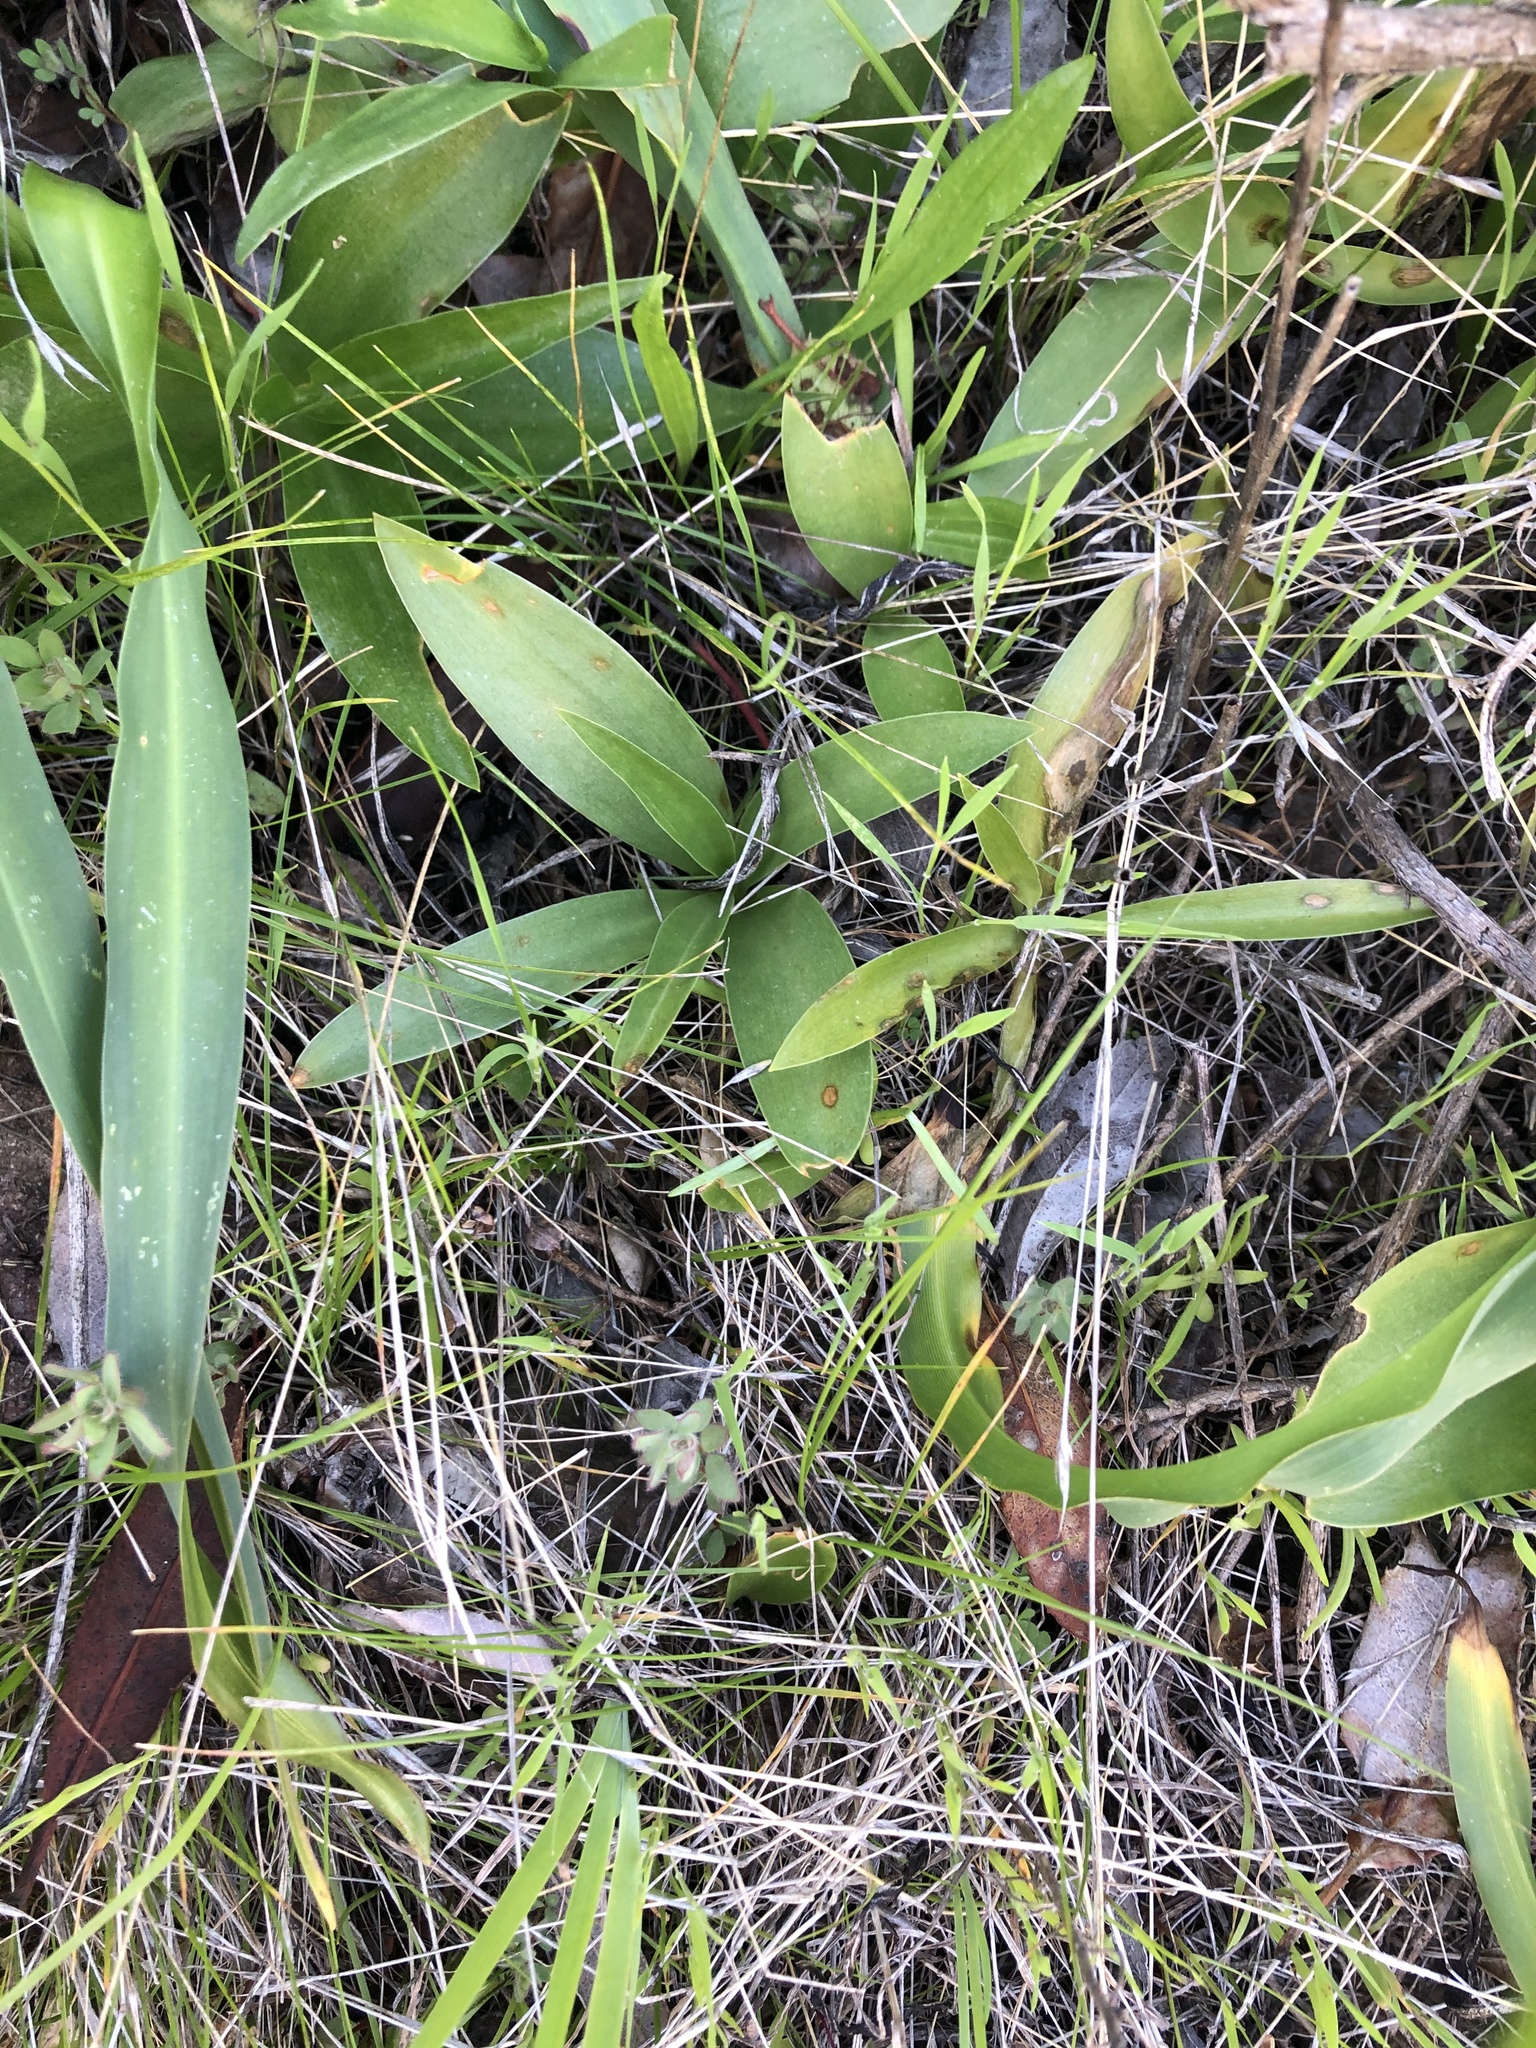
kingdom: Plantae
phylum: Tracheophyta
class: Liliopsida
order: Liliales
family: Liliaceae
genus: Fritillaria
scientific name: Fritillaria biflora
